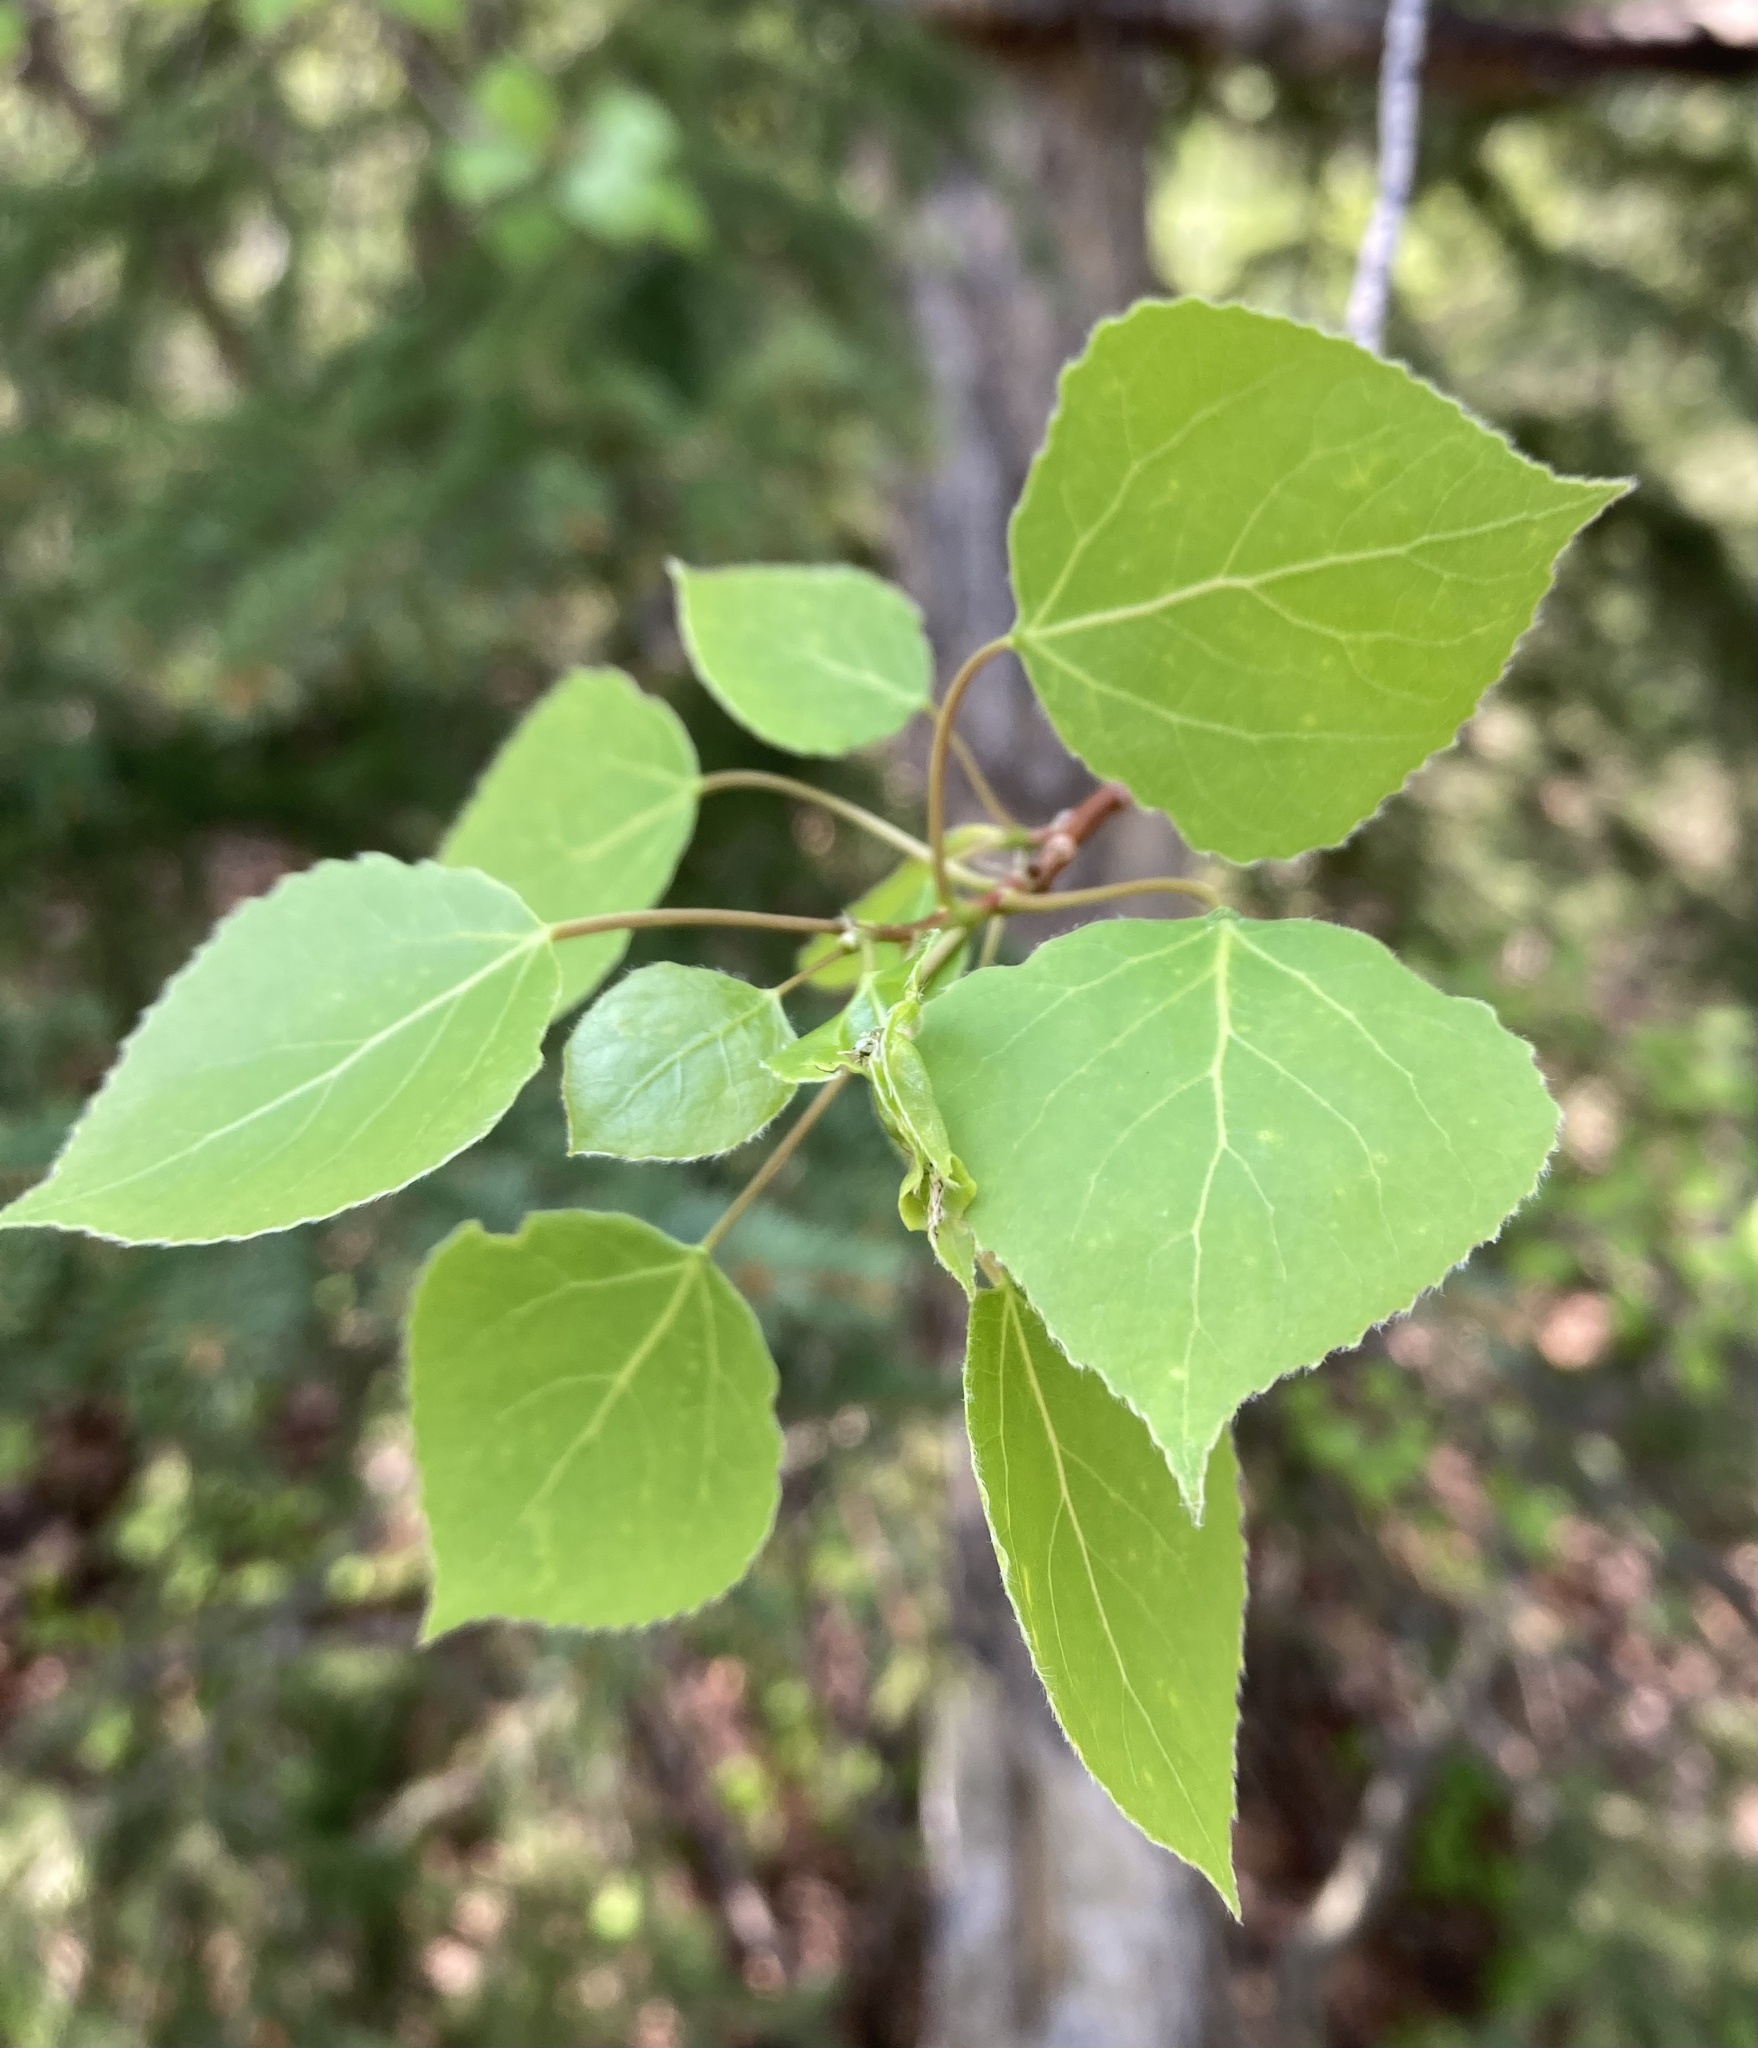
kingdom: Plantae
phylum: Tracheophyta
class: Magnoliopsida
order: Malpighiales
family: Salicaceae
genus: Populus
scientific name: Populus tremuloides
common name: Quaking aspen
